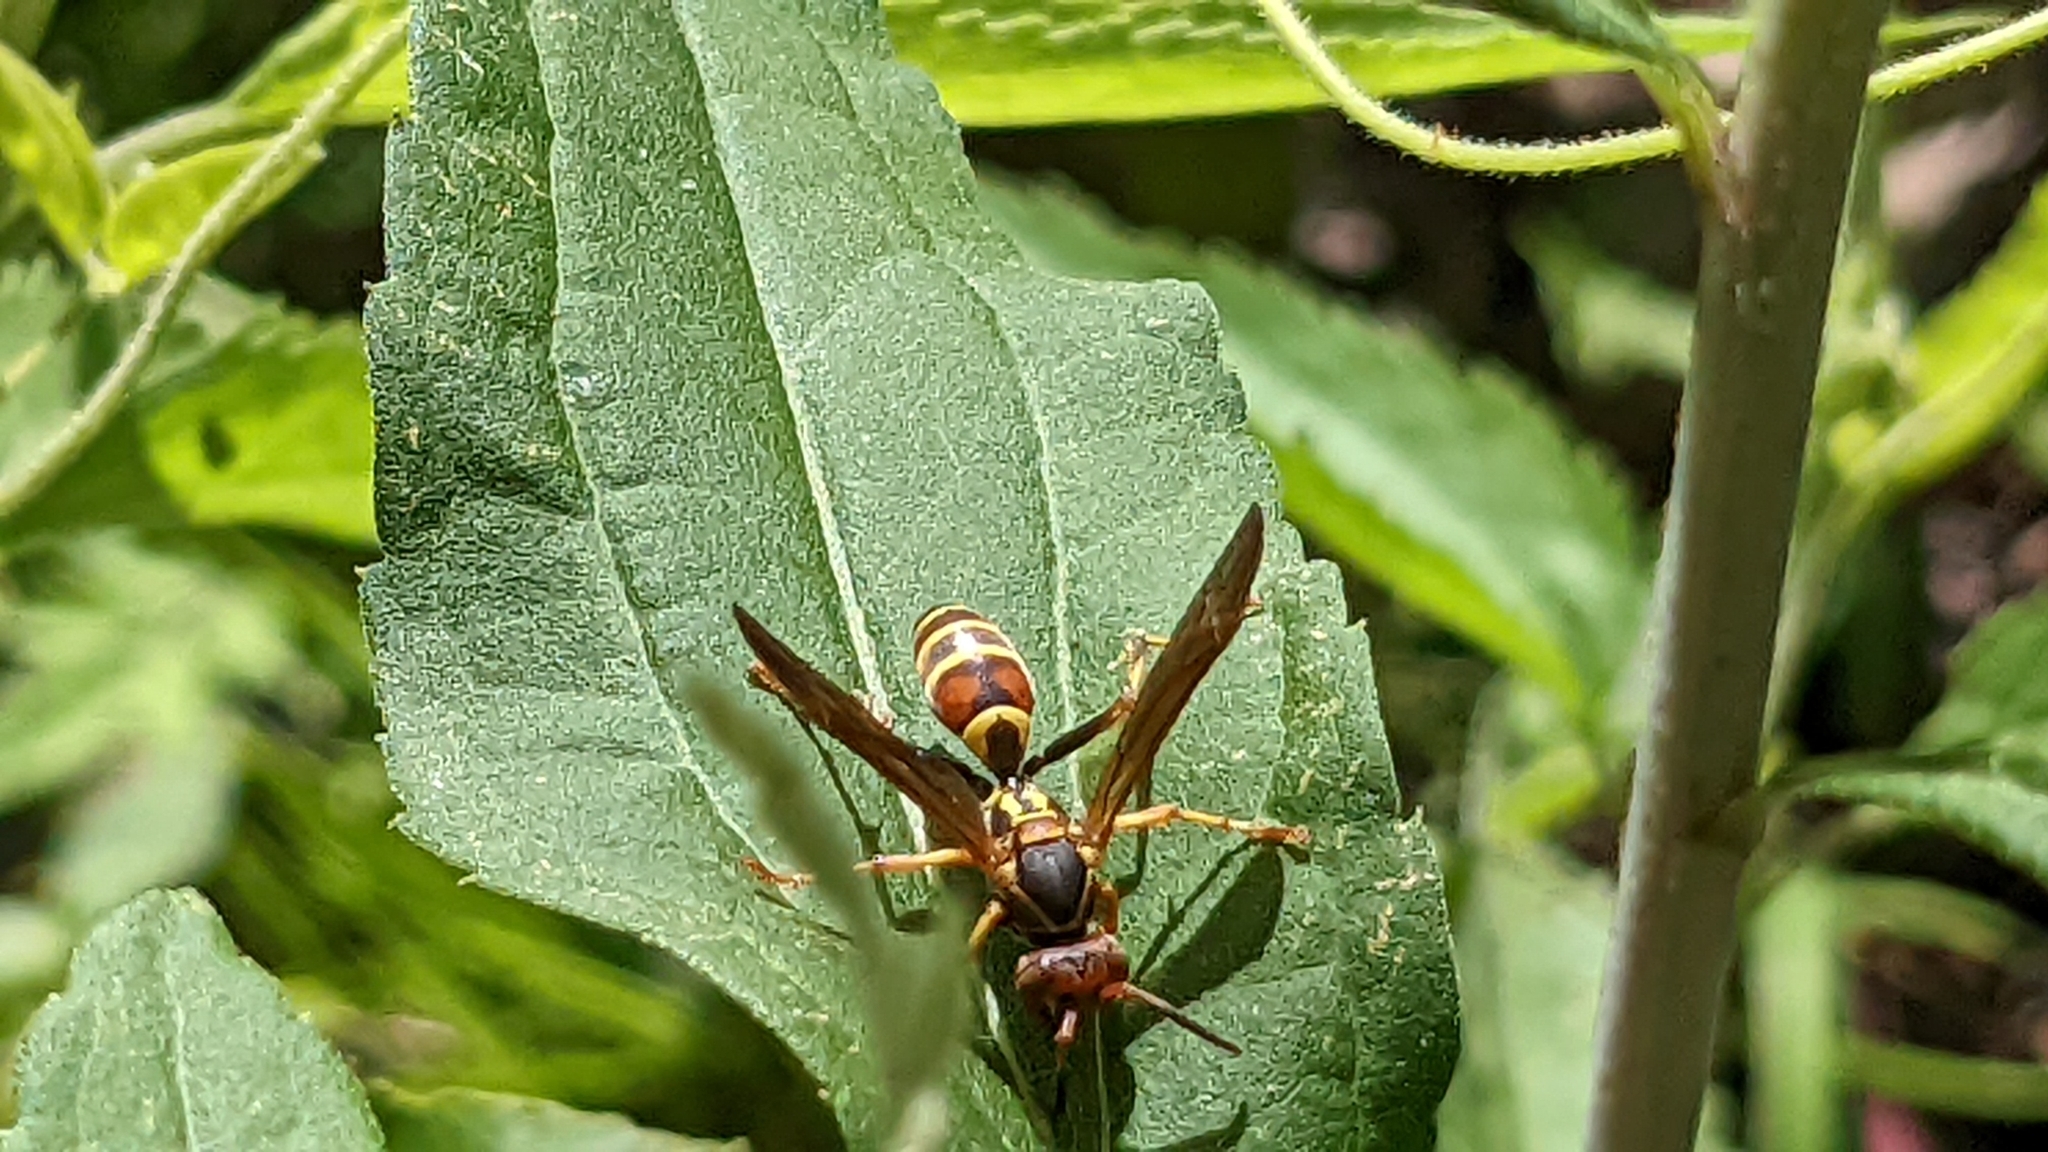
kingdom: Animalia
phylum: Arthropoda
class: Insecta
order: Hymenoptera
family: Eumenidae
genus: Polistes
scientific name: Polistes dorsalis
